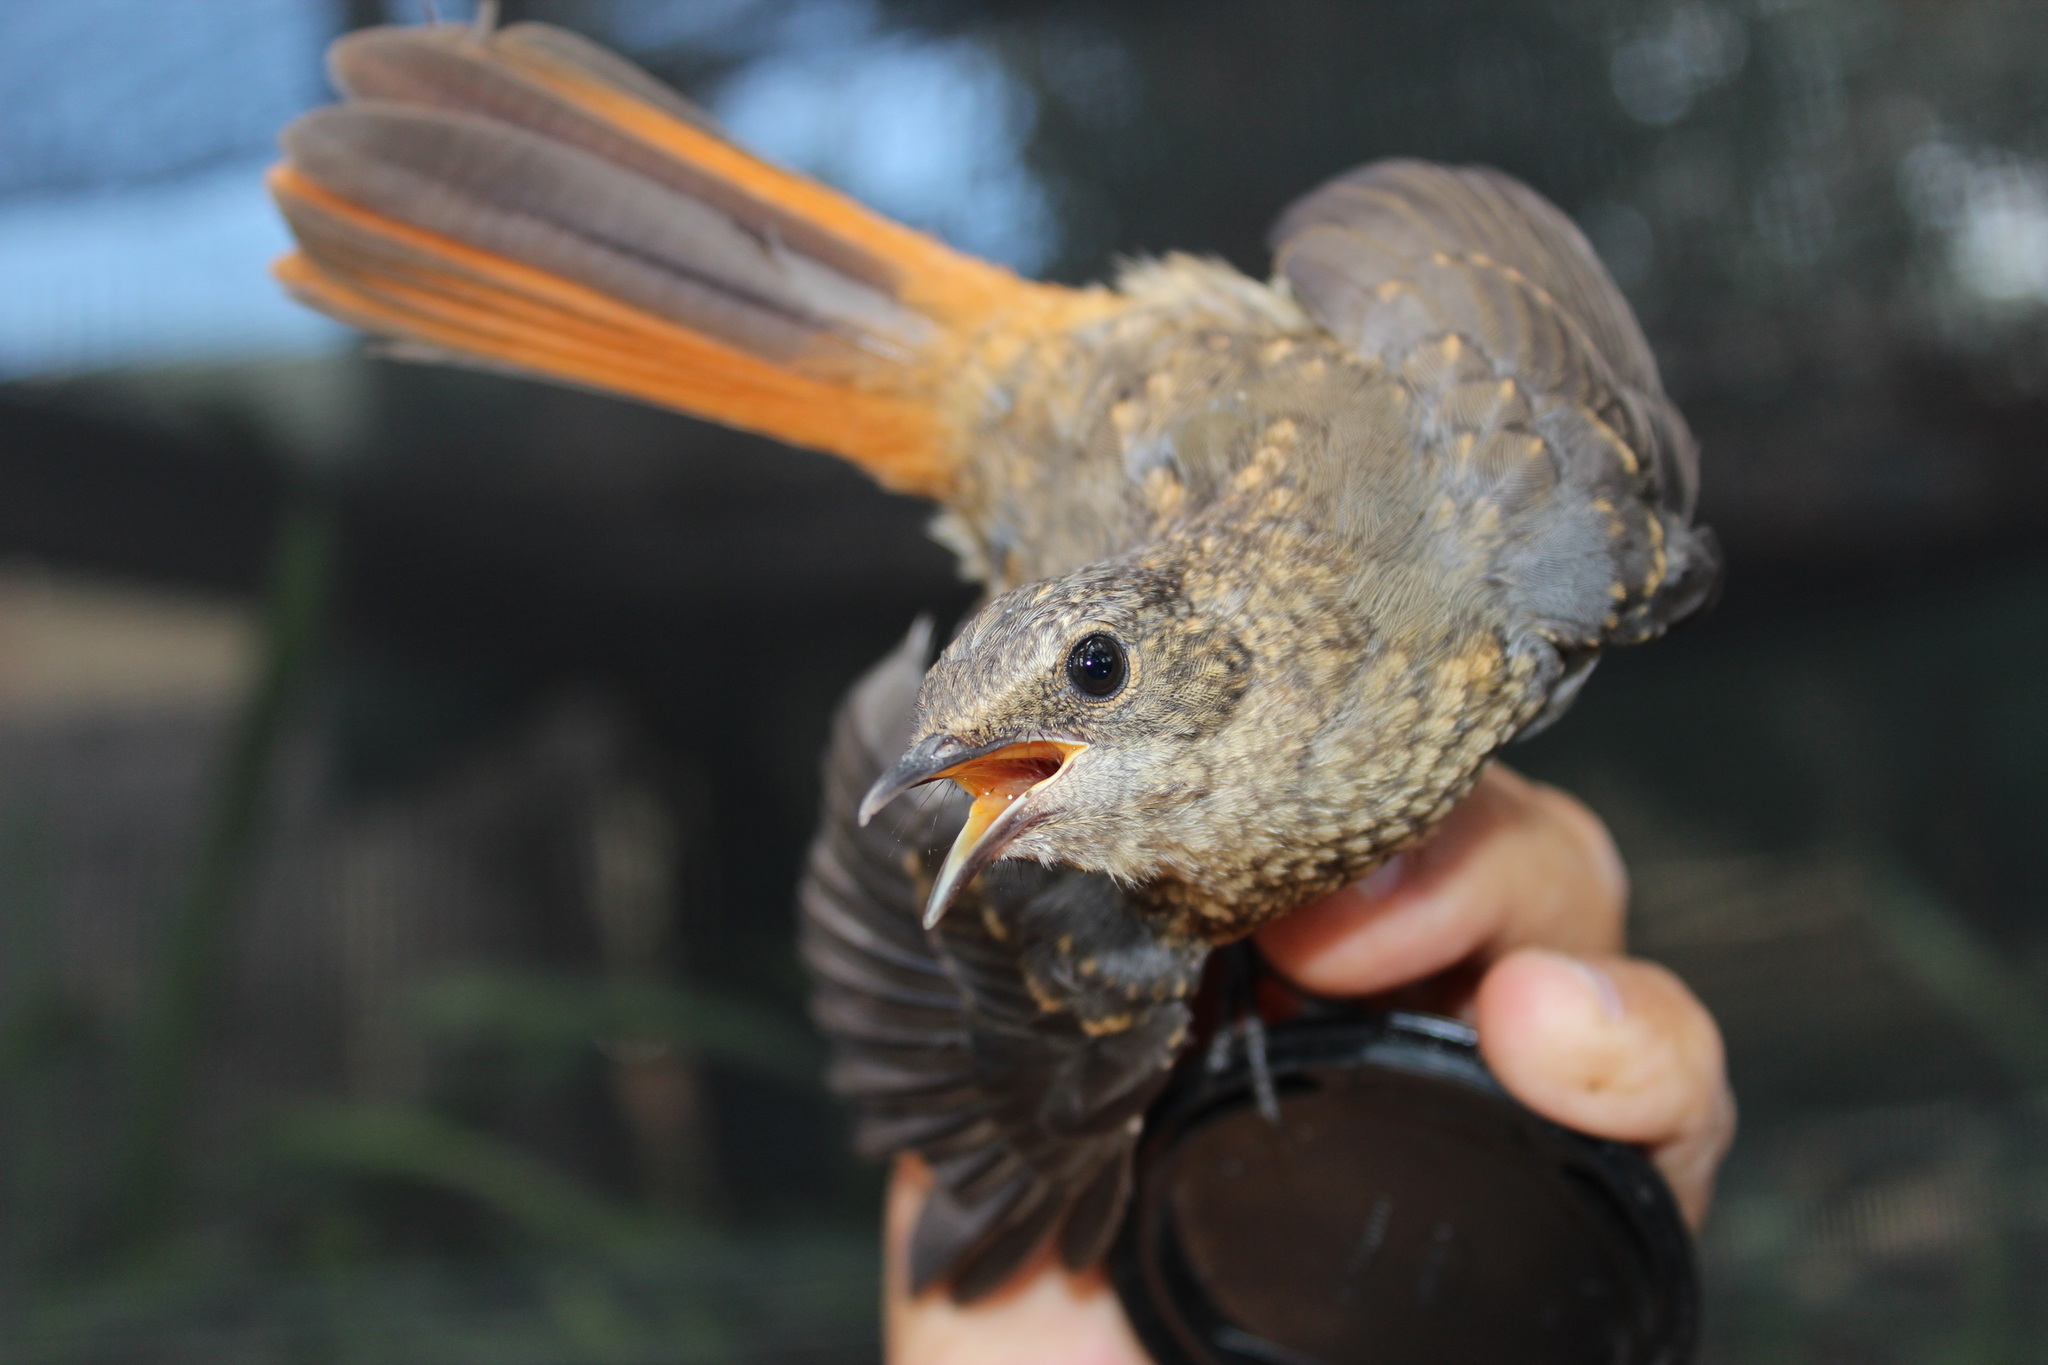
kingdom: Animalia
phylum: Chordata
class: Aves
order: Passeriformes
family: Muscicapidae
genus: Cossypha
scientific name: Cossypha caffra
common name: Cape robin-chat
